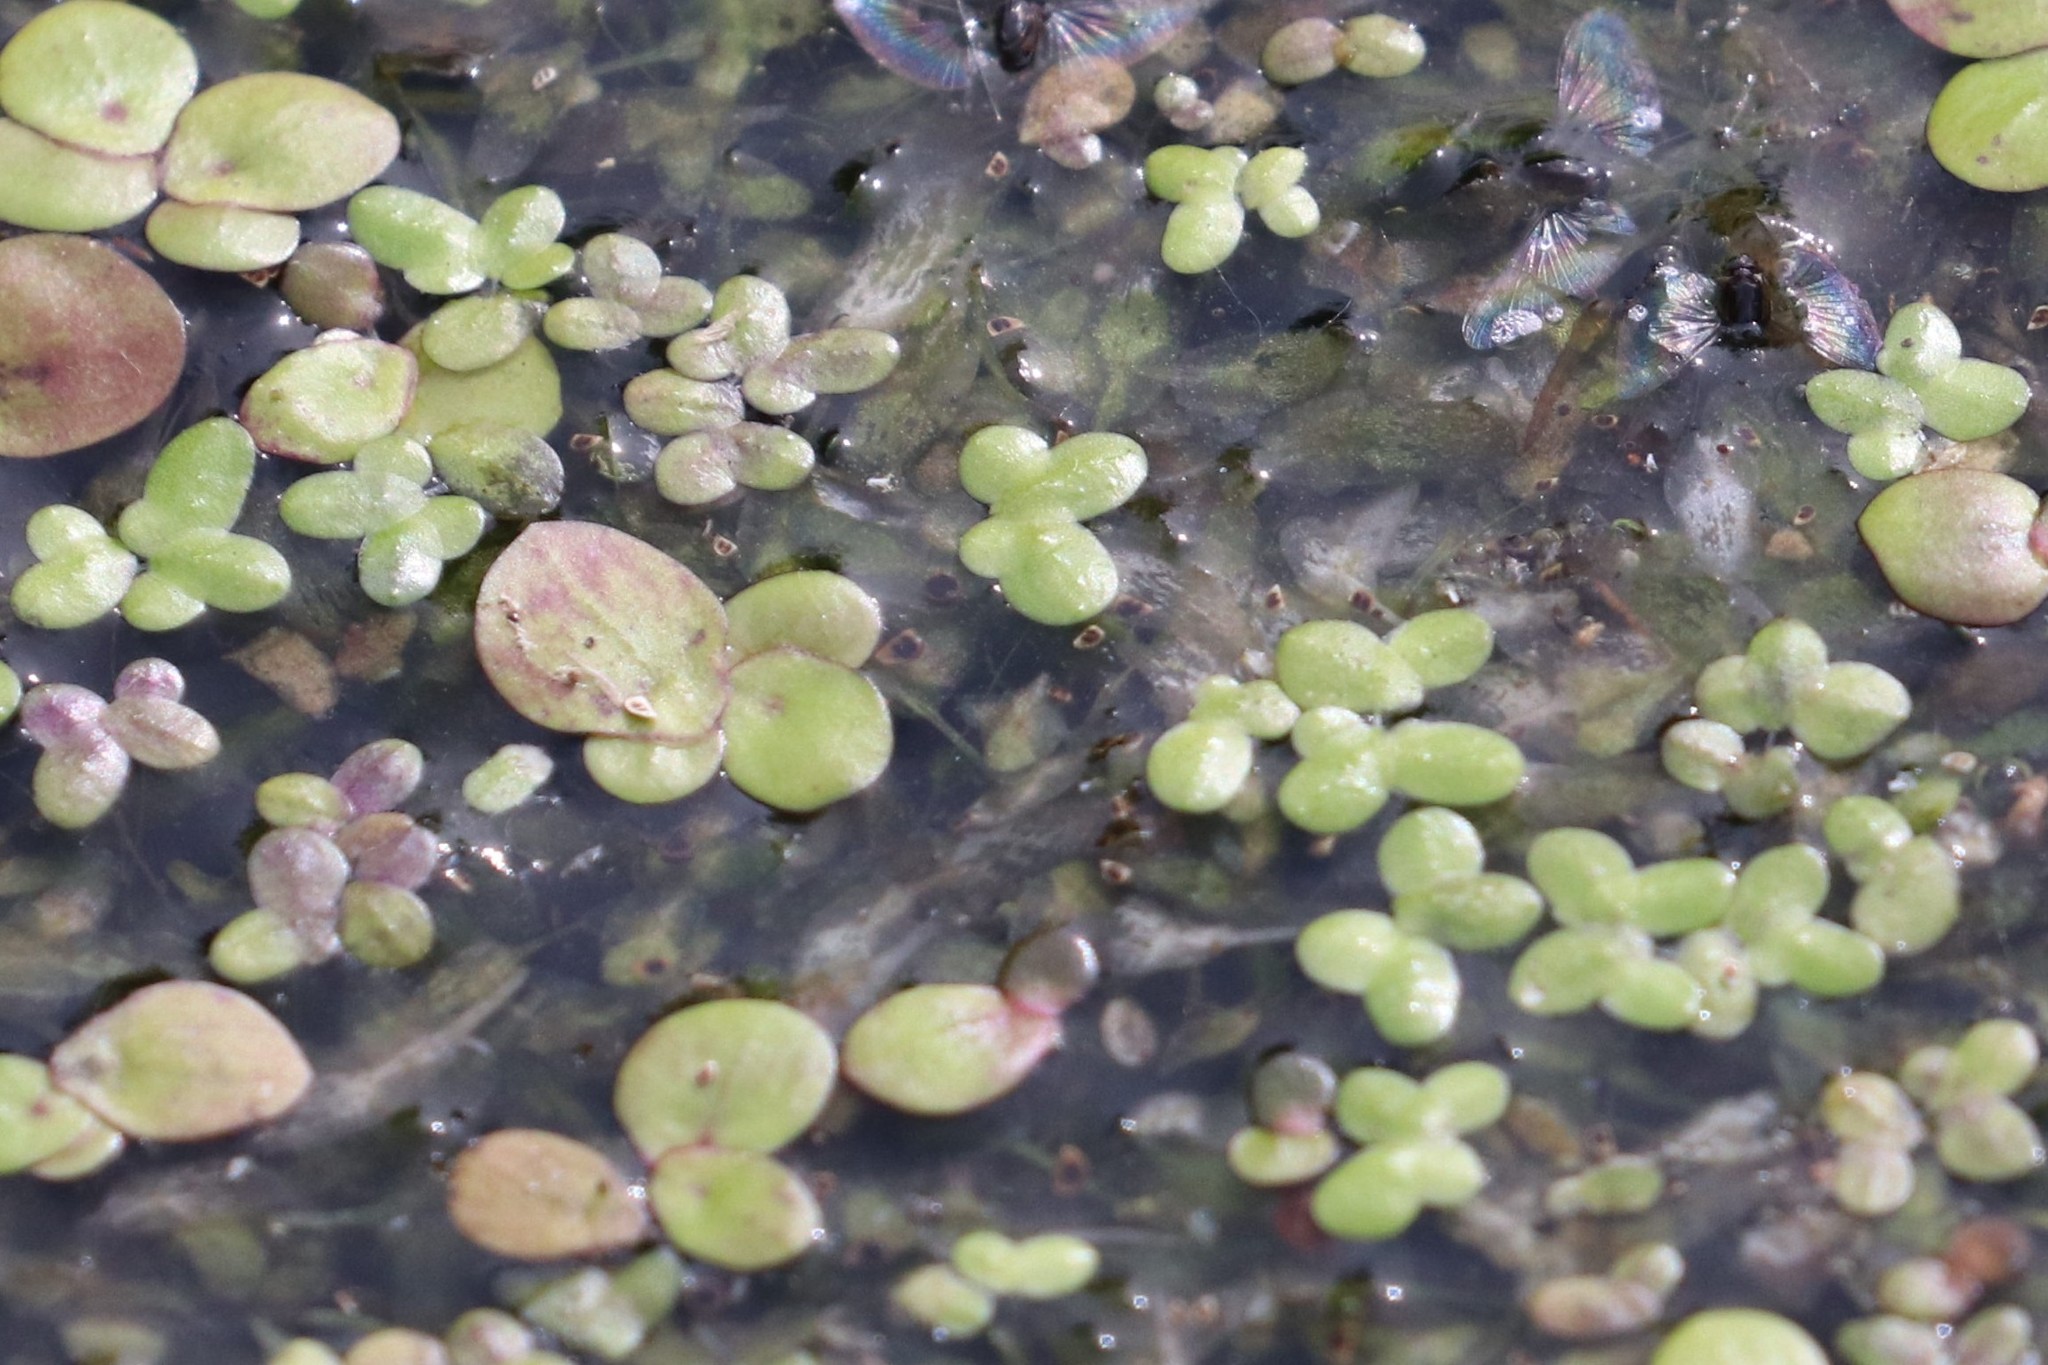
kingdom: Plantae
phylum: Tracheophyta
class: Liliopsida
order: Alismatales
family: Araceae
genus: Spirodela
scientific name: Spirodela polyrhiza
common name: Great duckweed
